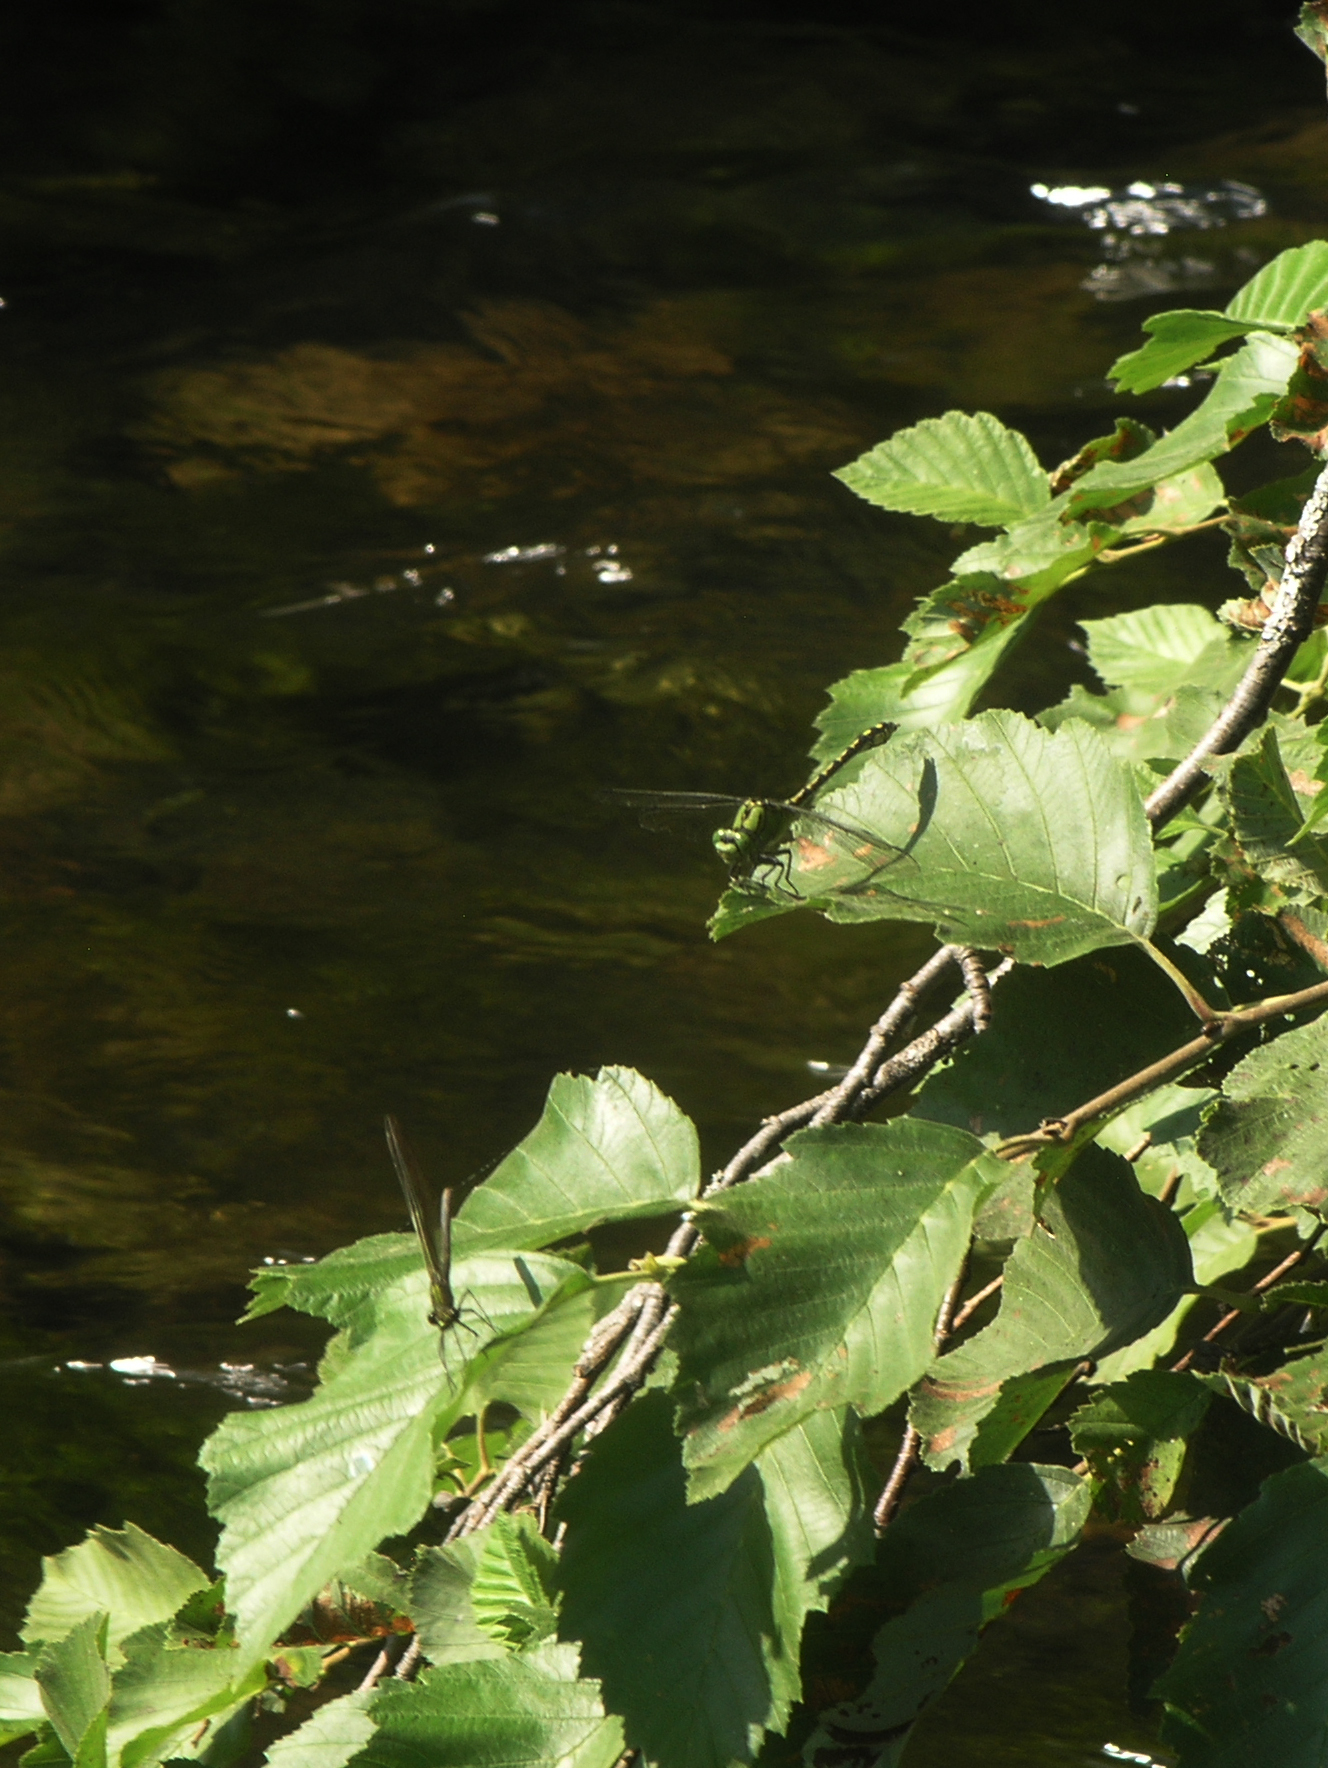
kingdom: Animalia
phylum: Arthropoda
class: Insecta
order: Odonata
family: Gomphidae
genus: Ophiogomphus
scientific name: Ophiogomphus cecilia
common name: Green snaketail
